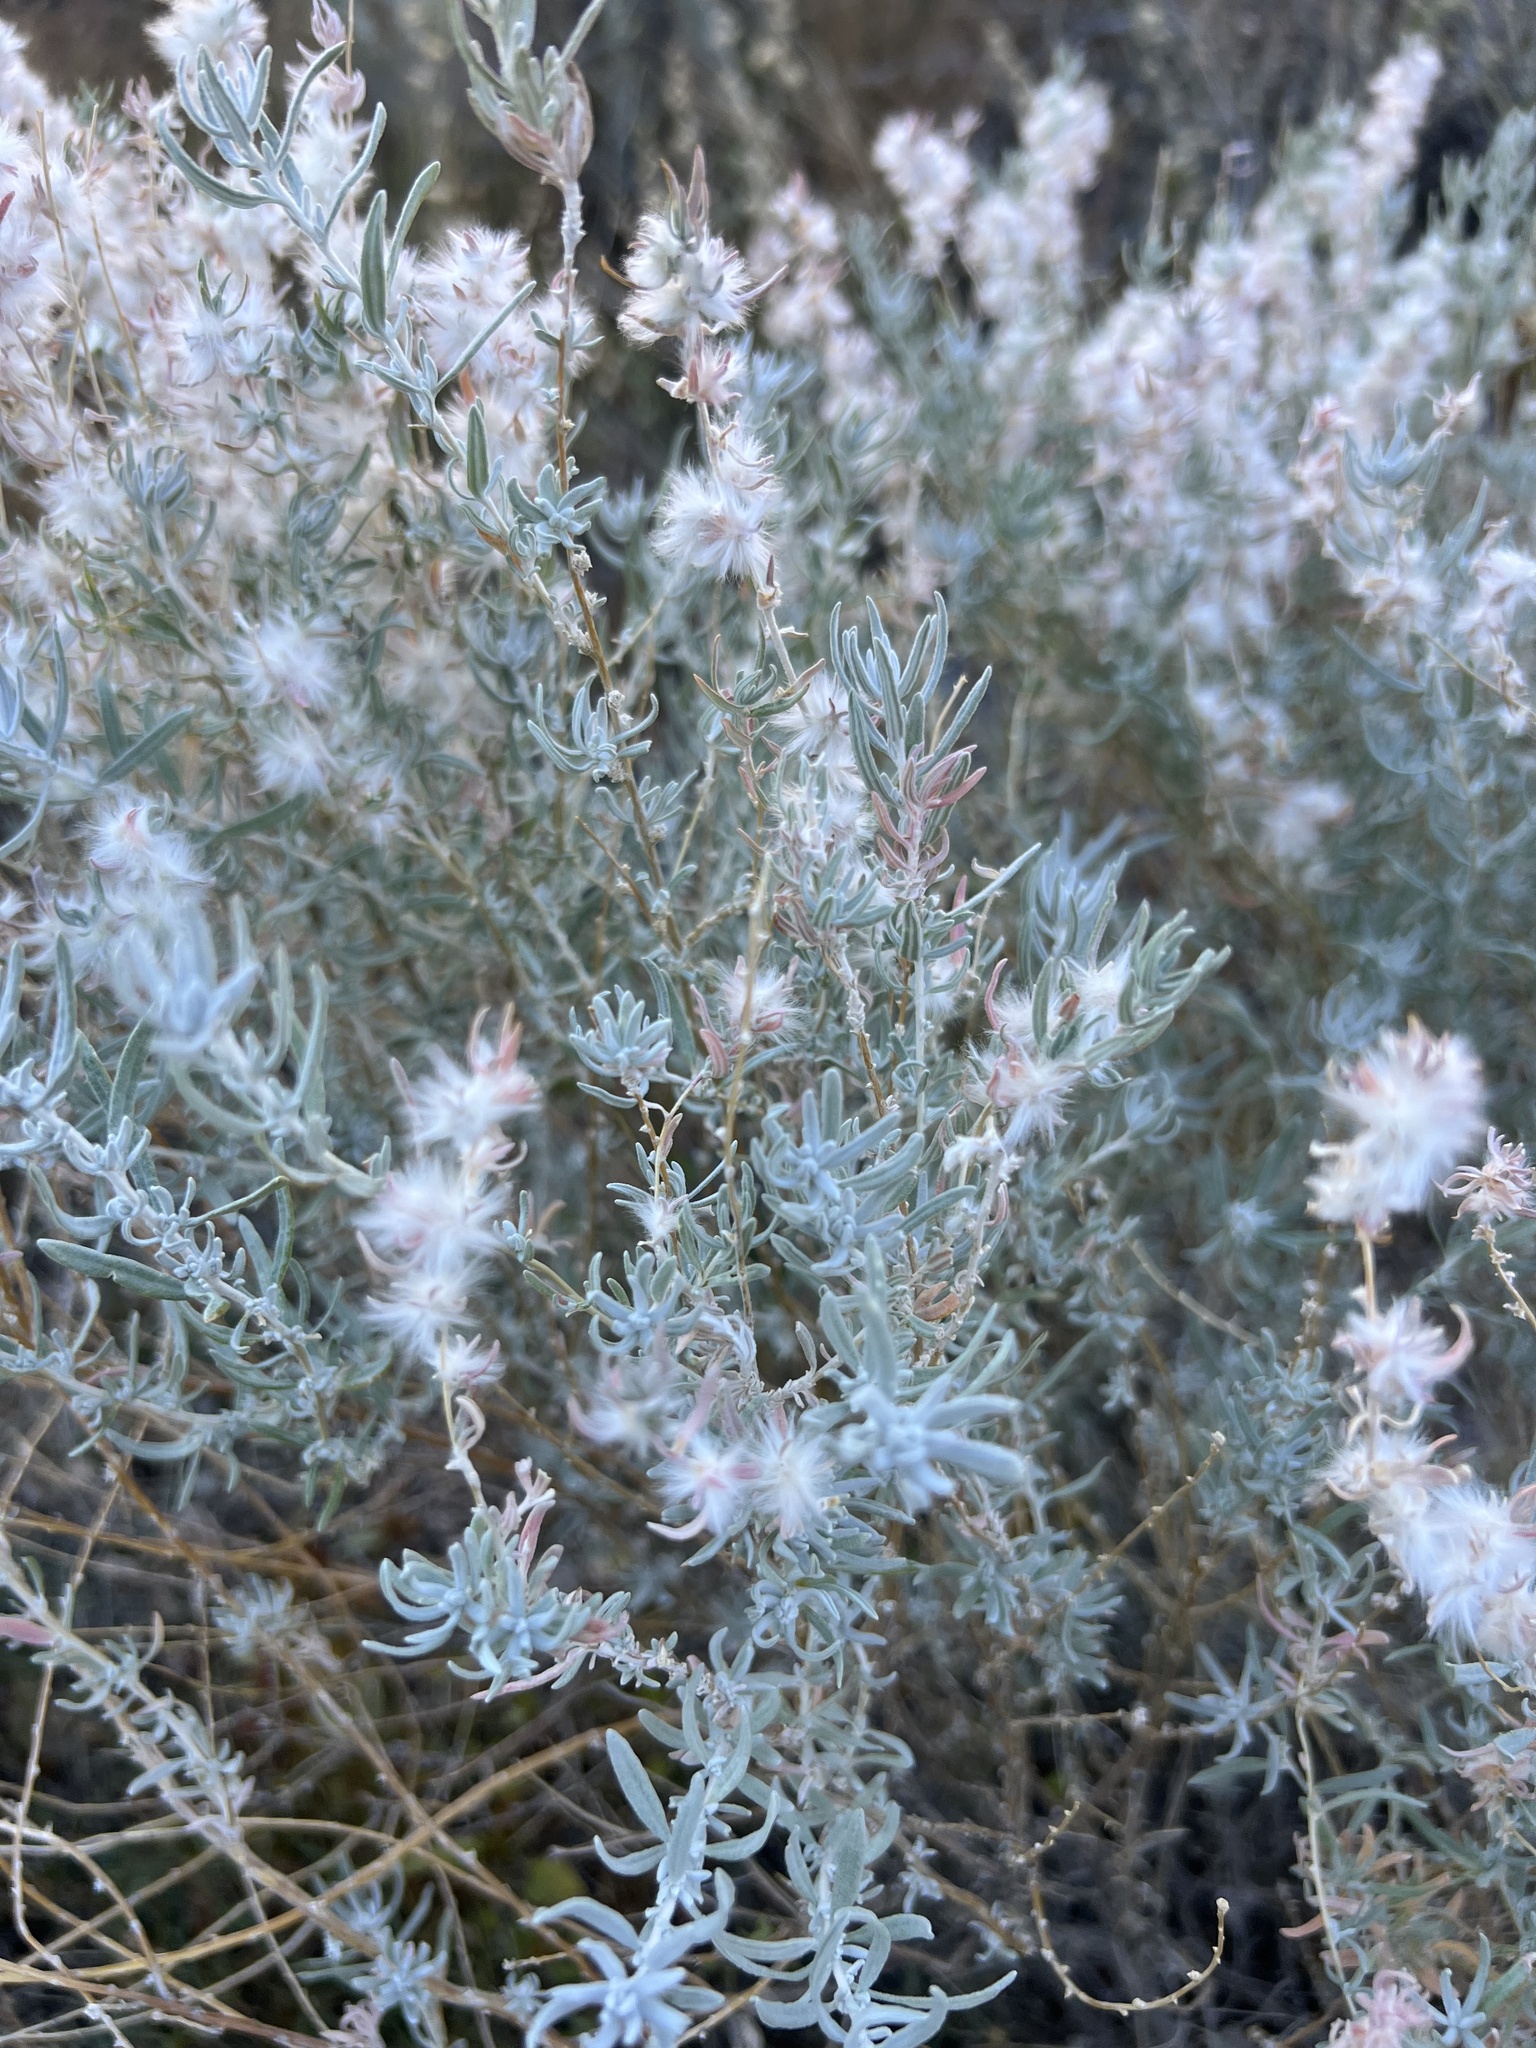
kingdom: Plantae
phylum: Tracheophyta
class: Magnoliopsida
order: Caryophyllales
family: Amaranthaceae
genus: Krascheninnikovia
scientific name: Krascheninnikovia lanata
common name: Winterfat
